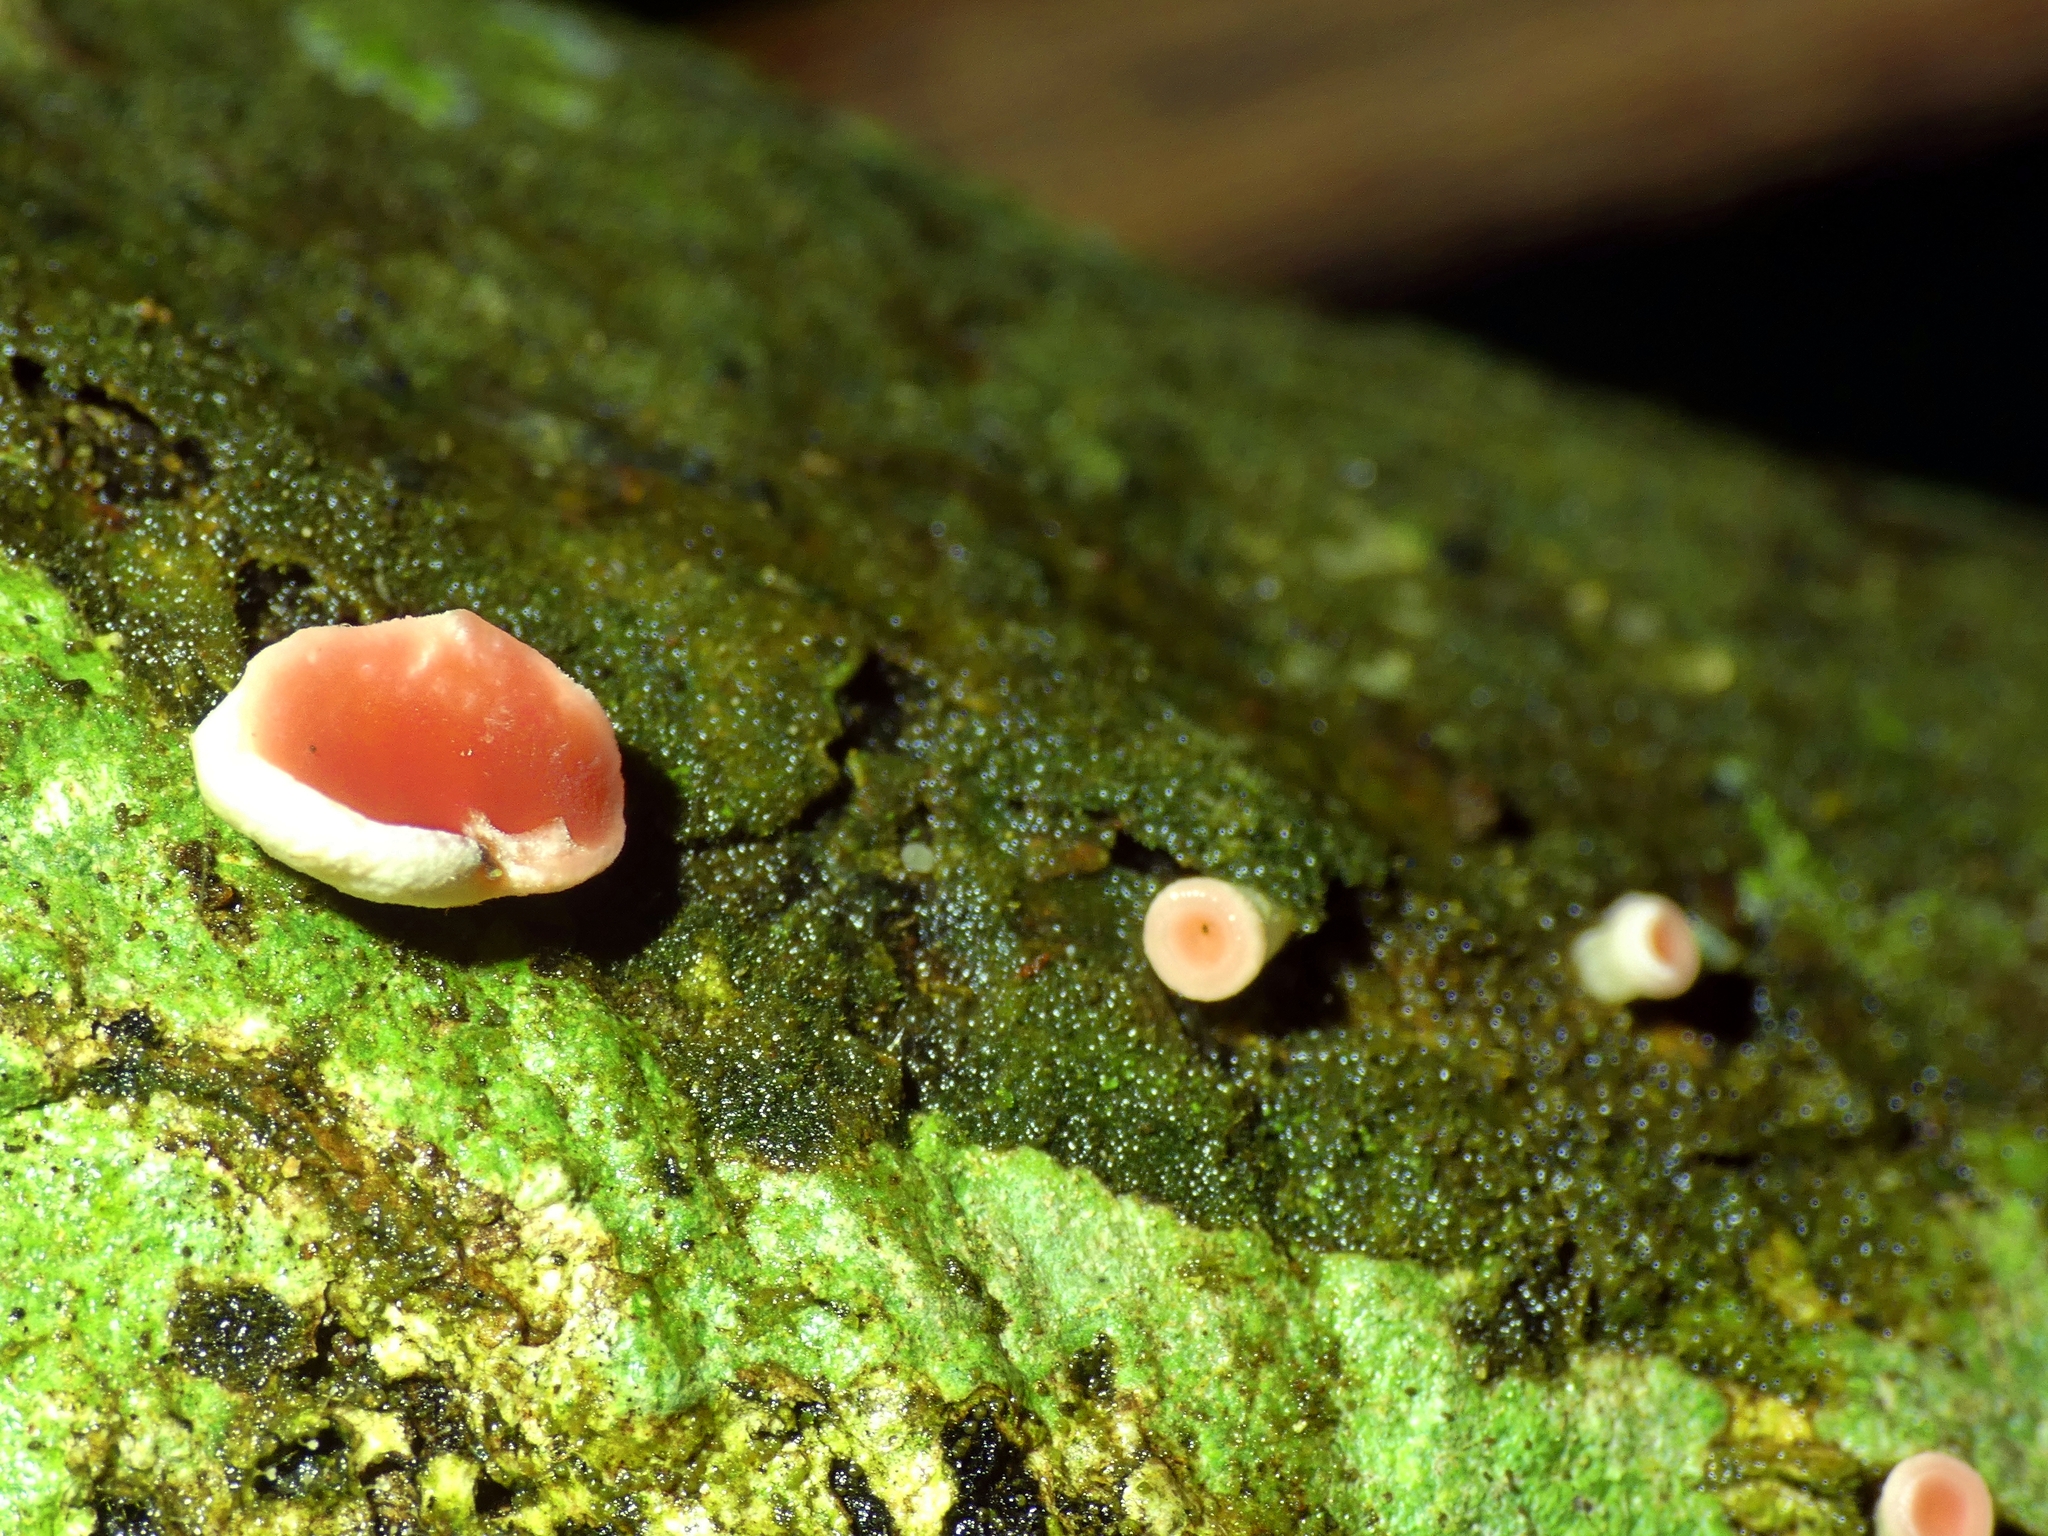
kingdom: Fungi
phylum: Ascomycota
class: Pezizomycetes
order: Pezizales
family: Sarcoscyphaceae
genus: Phillipsia
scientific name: Phillipsia subpurpurea
